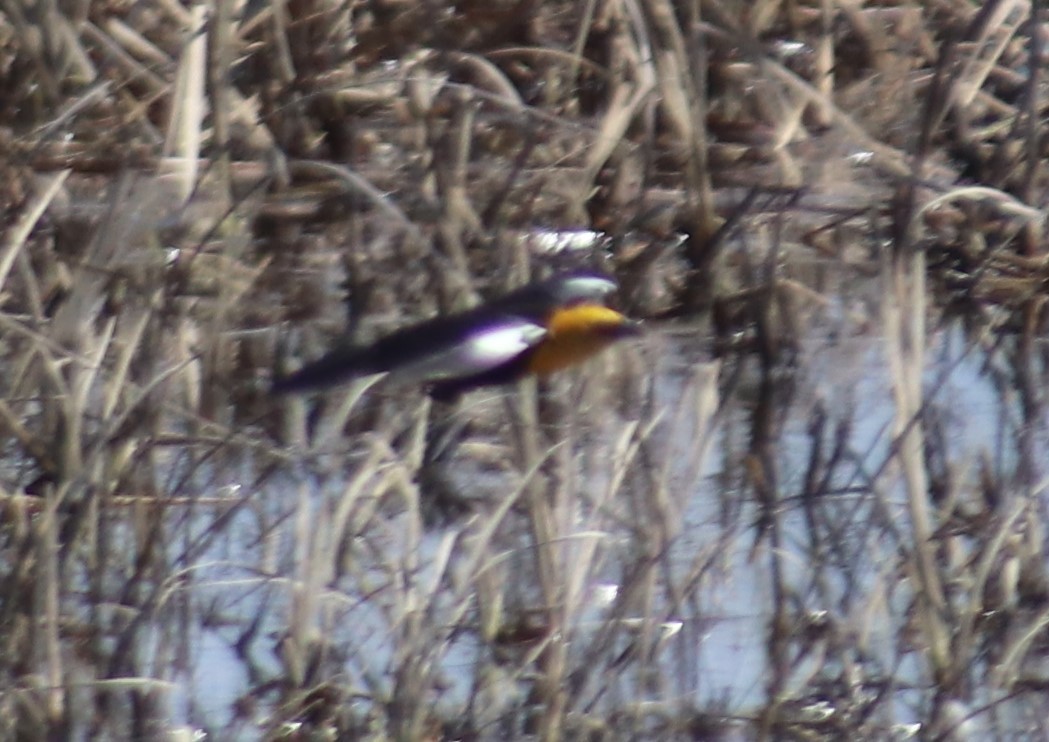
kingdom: Animalia
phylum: Chordata
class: Aves
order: Passeriformes
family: Icteridae
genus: Xanthocephalus
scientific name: Xanthocephalus xanthocephalus
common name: Yellow-headed blackbird
